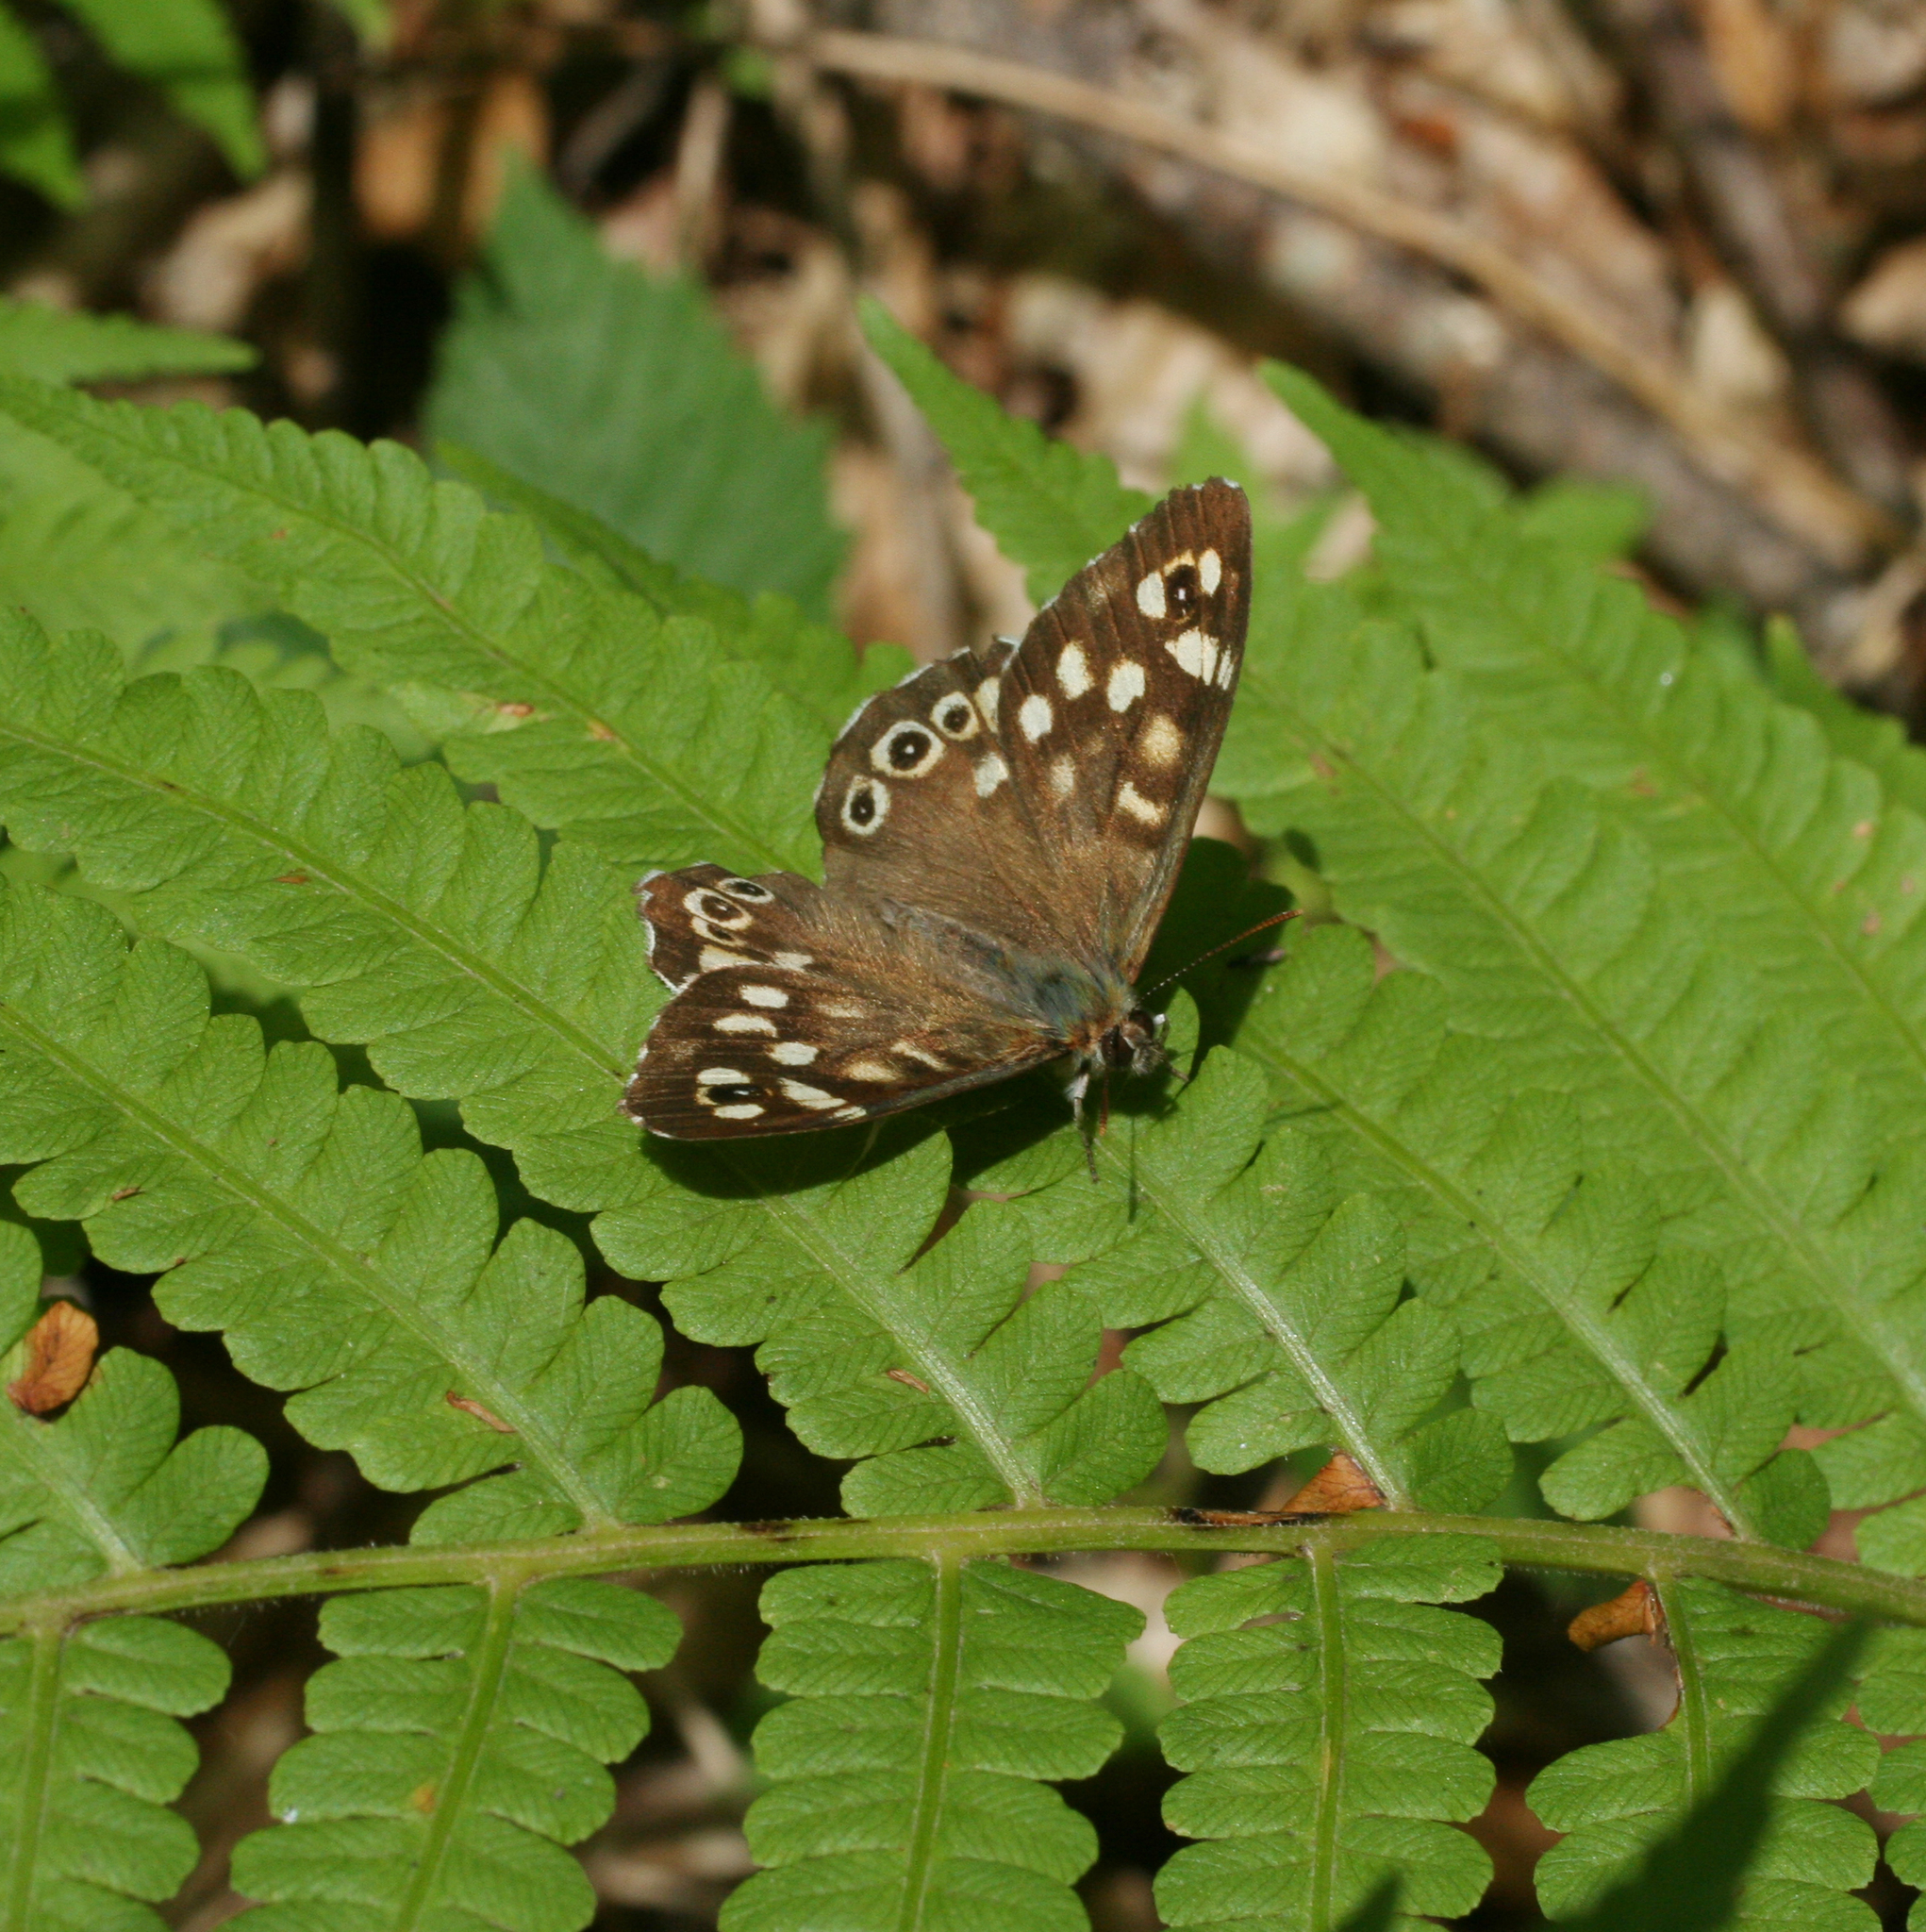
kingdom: Animalia
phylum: Arthropoda
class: Insecta
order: Lepidoptera
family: Nymphalidae
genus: Pararge
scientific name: Pararge aegeria
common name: Speckled wood
